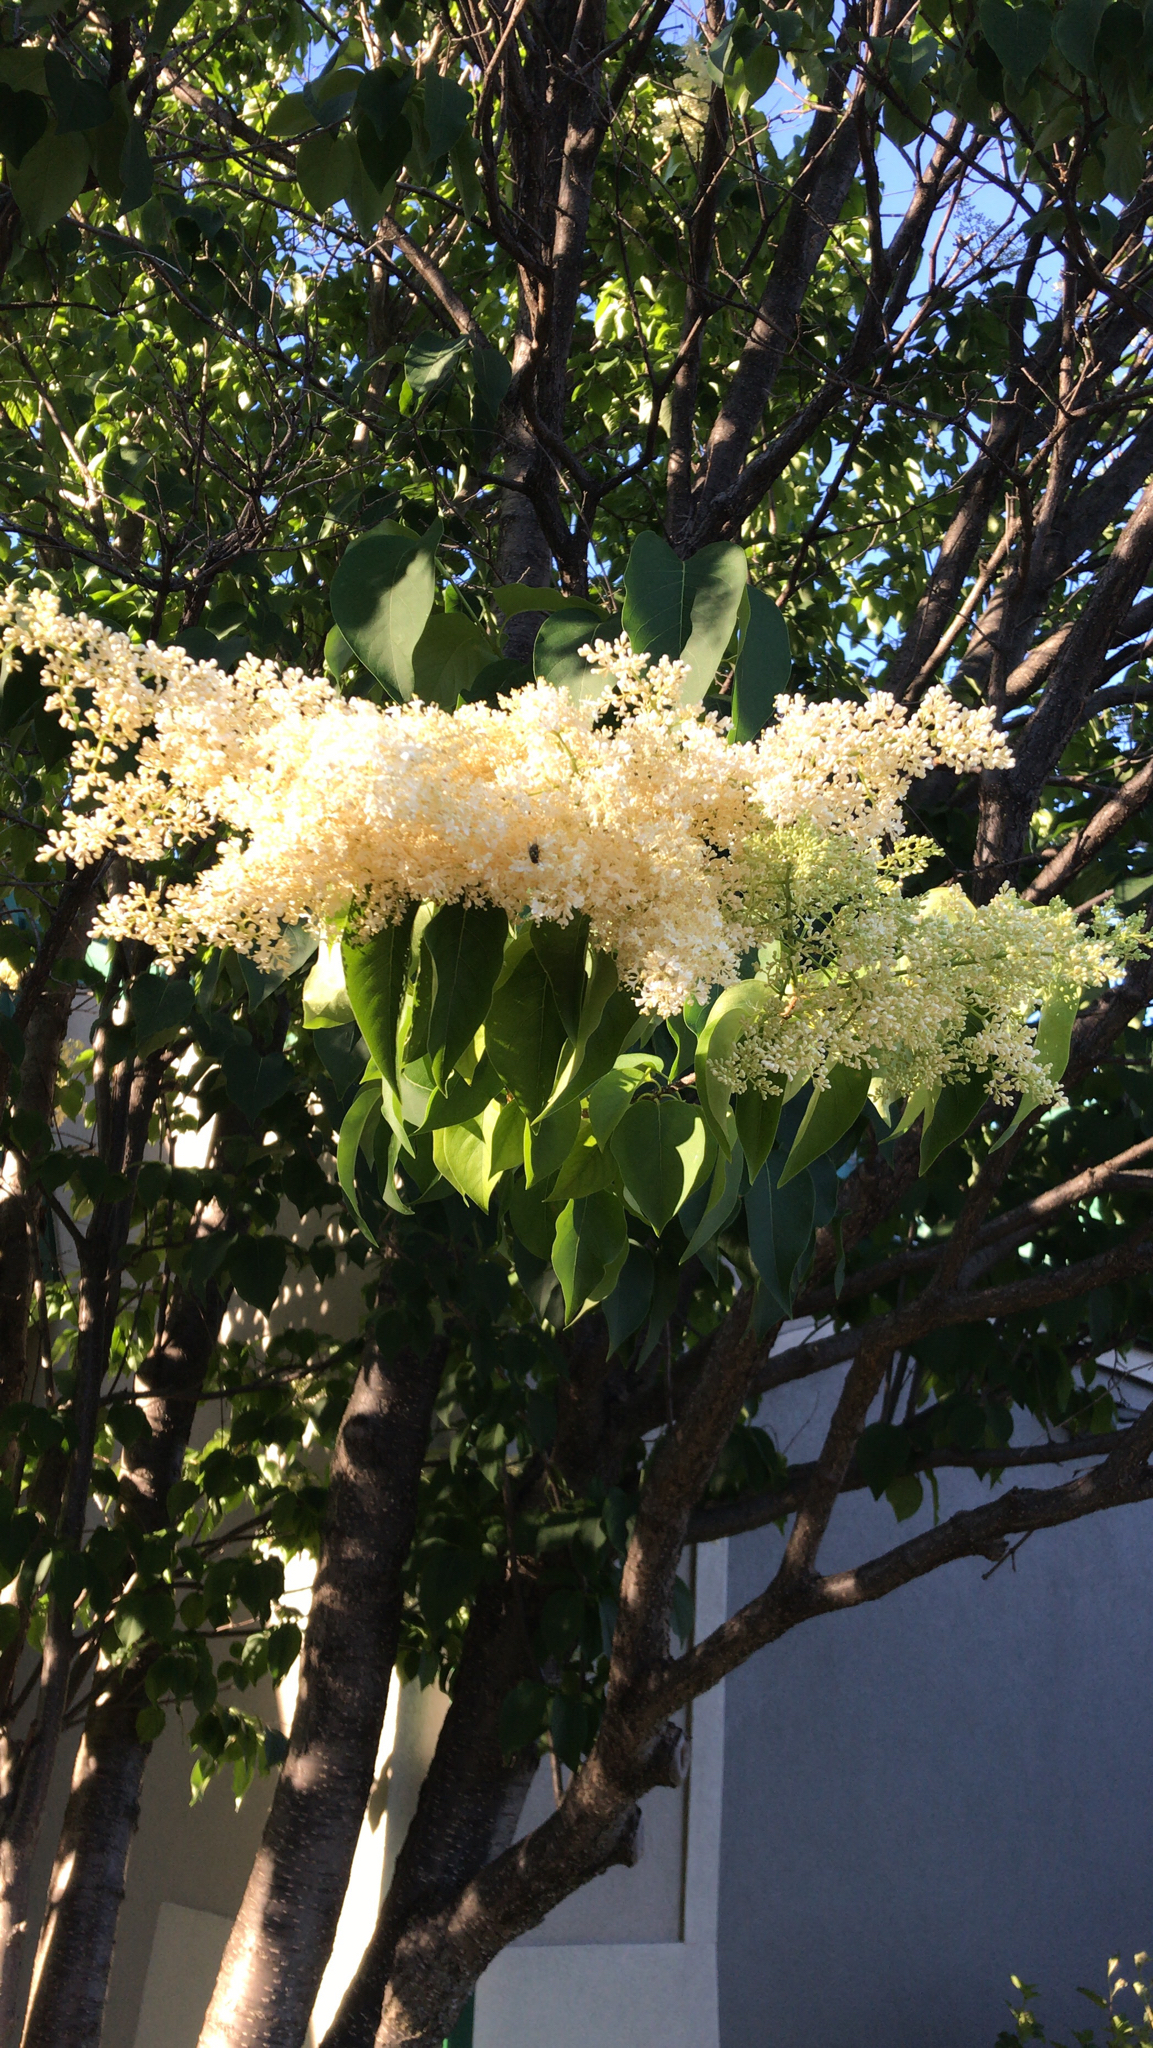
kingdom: Plantae
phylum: Tracheophyta
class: Magnoliopsida
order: Lamiales
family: Oleaceae
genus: Syringa
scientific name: Syringa reticulata
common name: Japanese tree lilac
